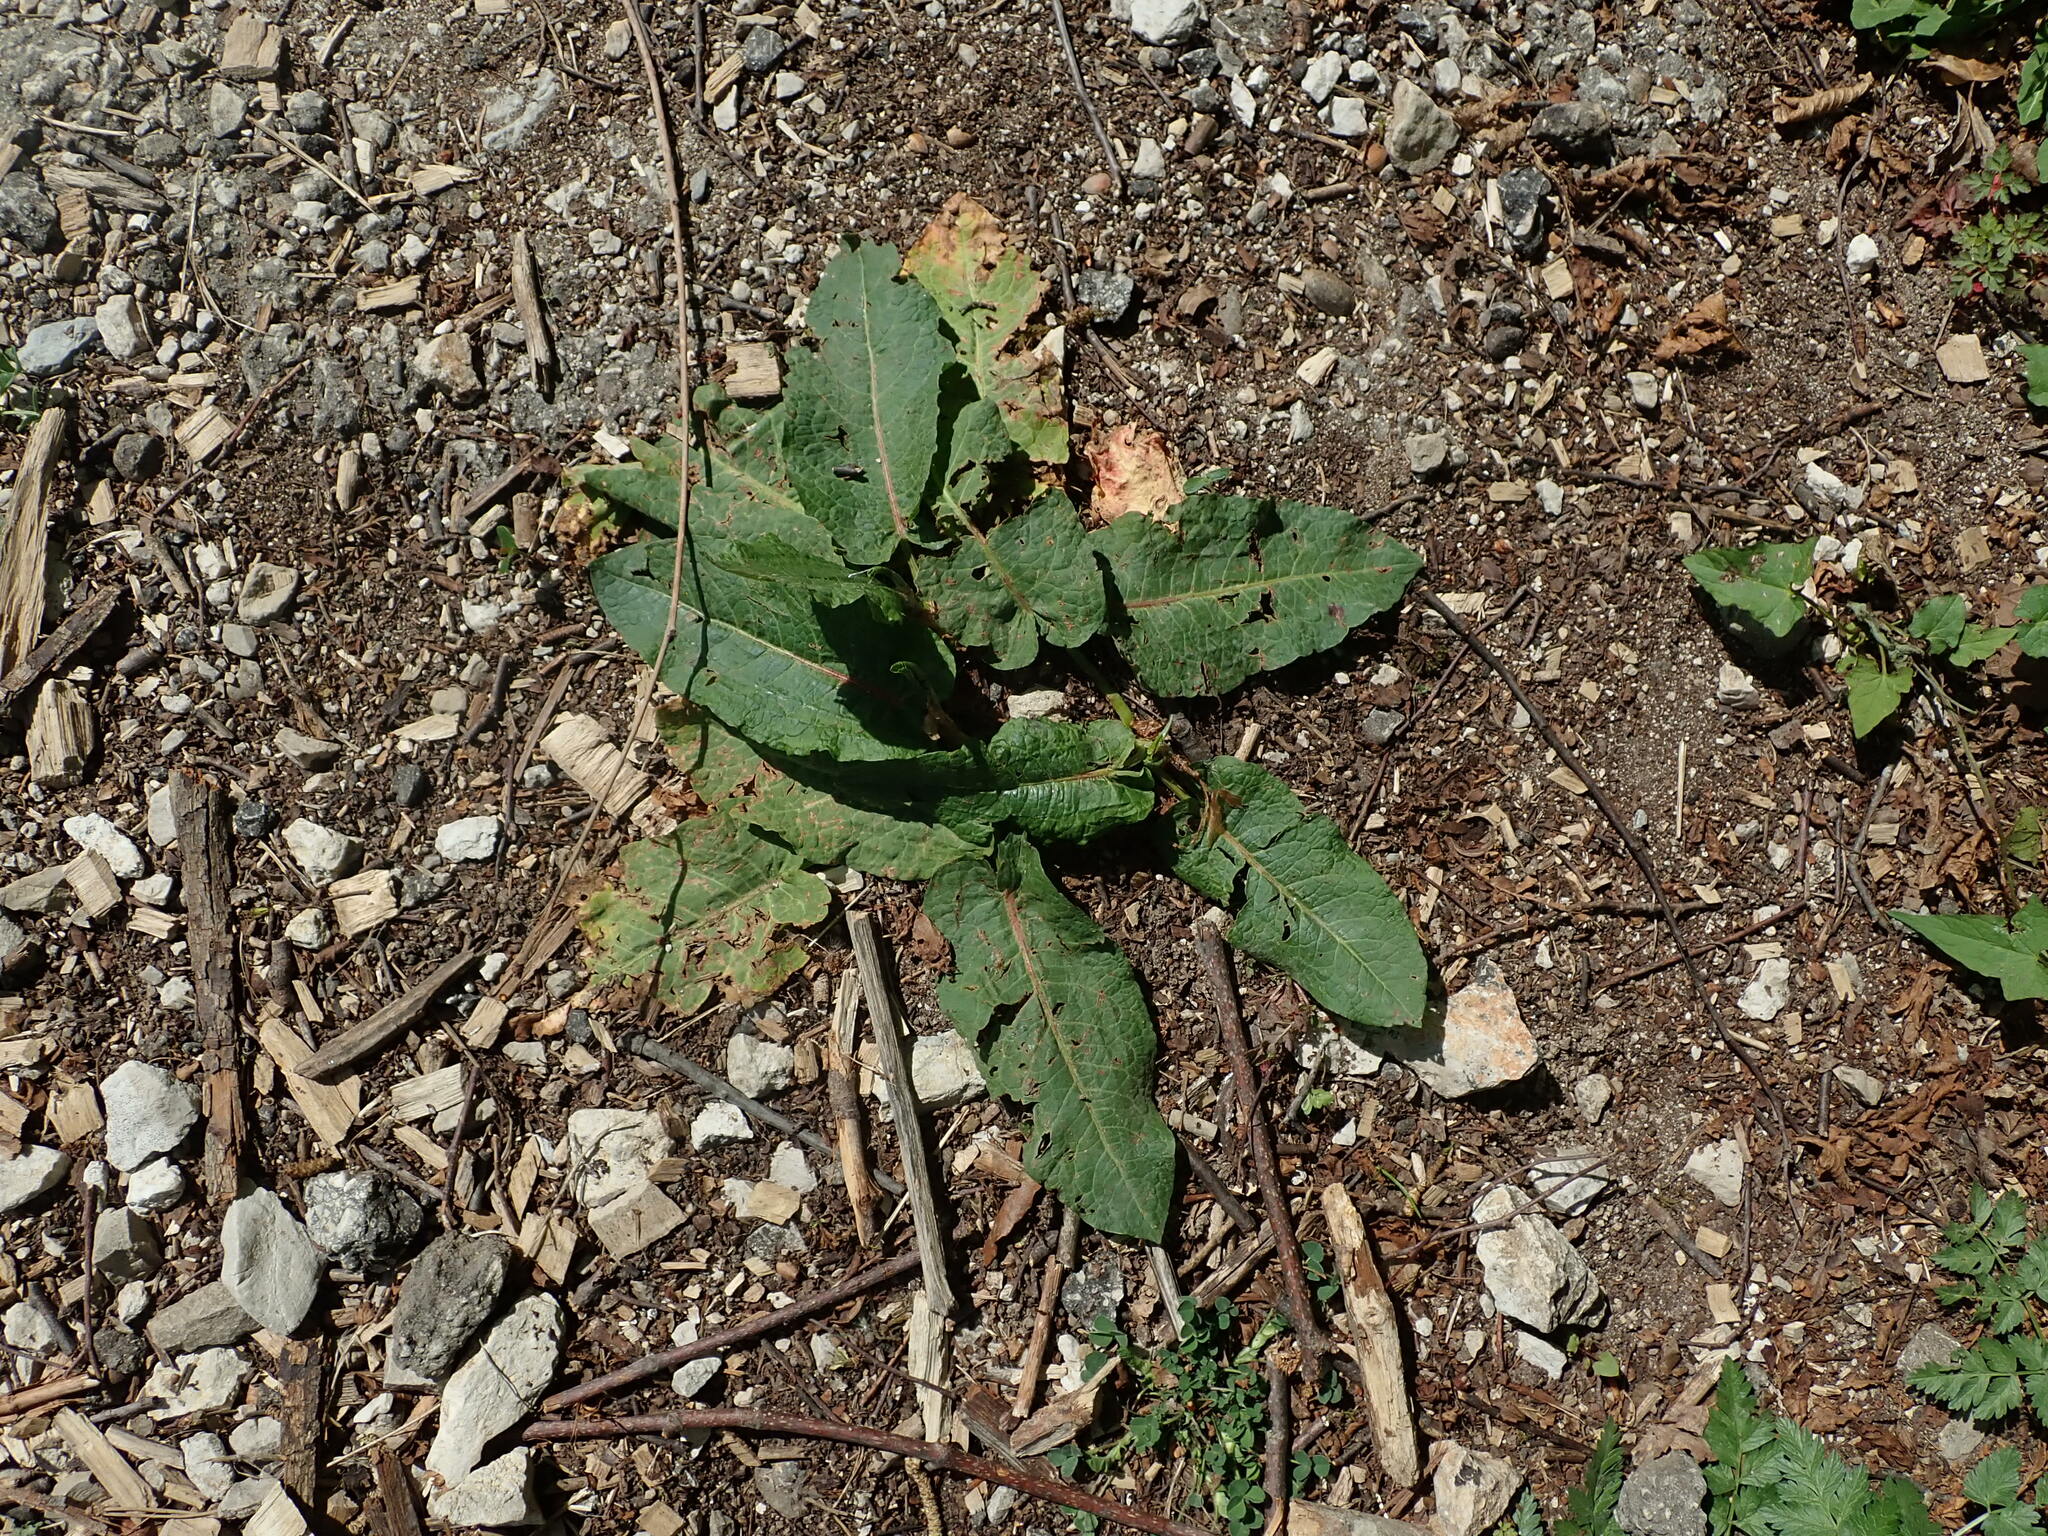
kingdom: Plantae
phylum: Tracheophyta
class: Magnoliopsida
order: Caryophyllales
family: Polygonaceae
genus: Rumex
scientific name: Rumex obtusifolius
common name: Bitter dock
